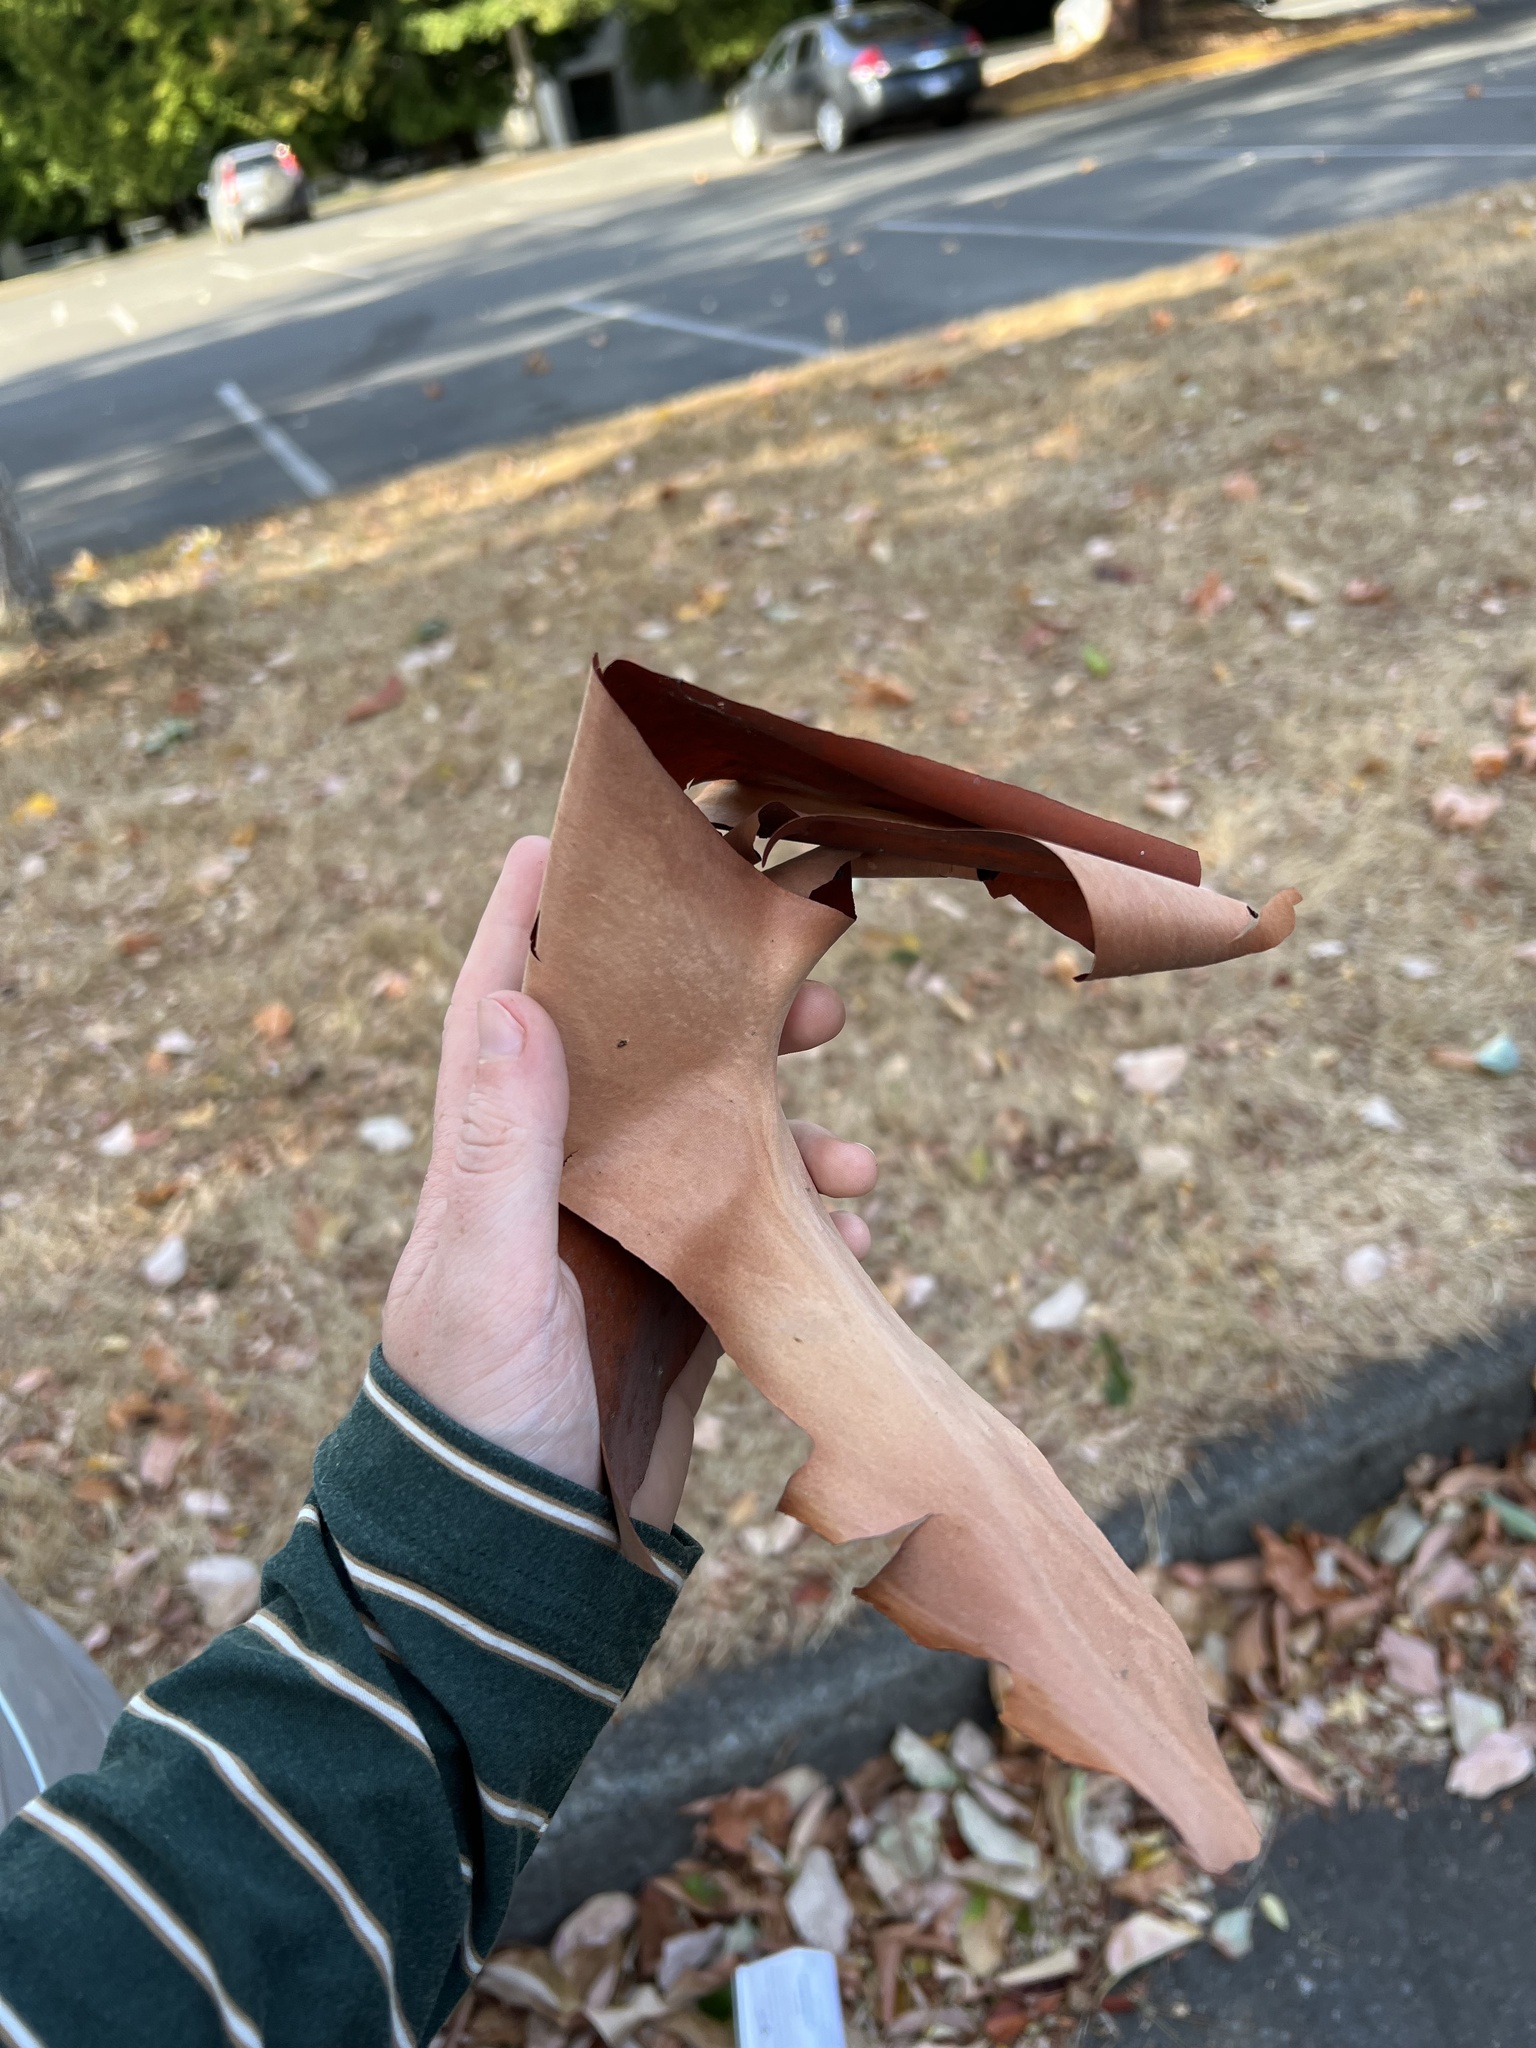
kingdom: Plantae
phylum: Tracheophyta
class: Magnoliopsida
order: Ericales
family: Ericaceae
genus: Arbutus
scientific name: Arbutus menziesii
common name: Pacific madrone
